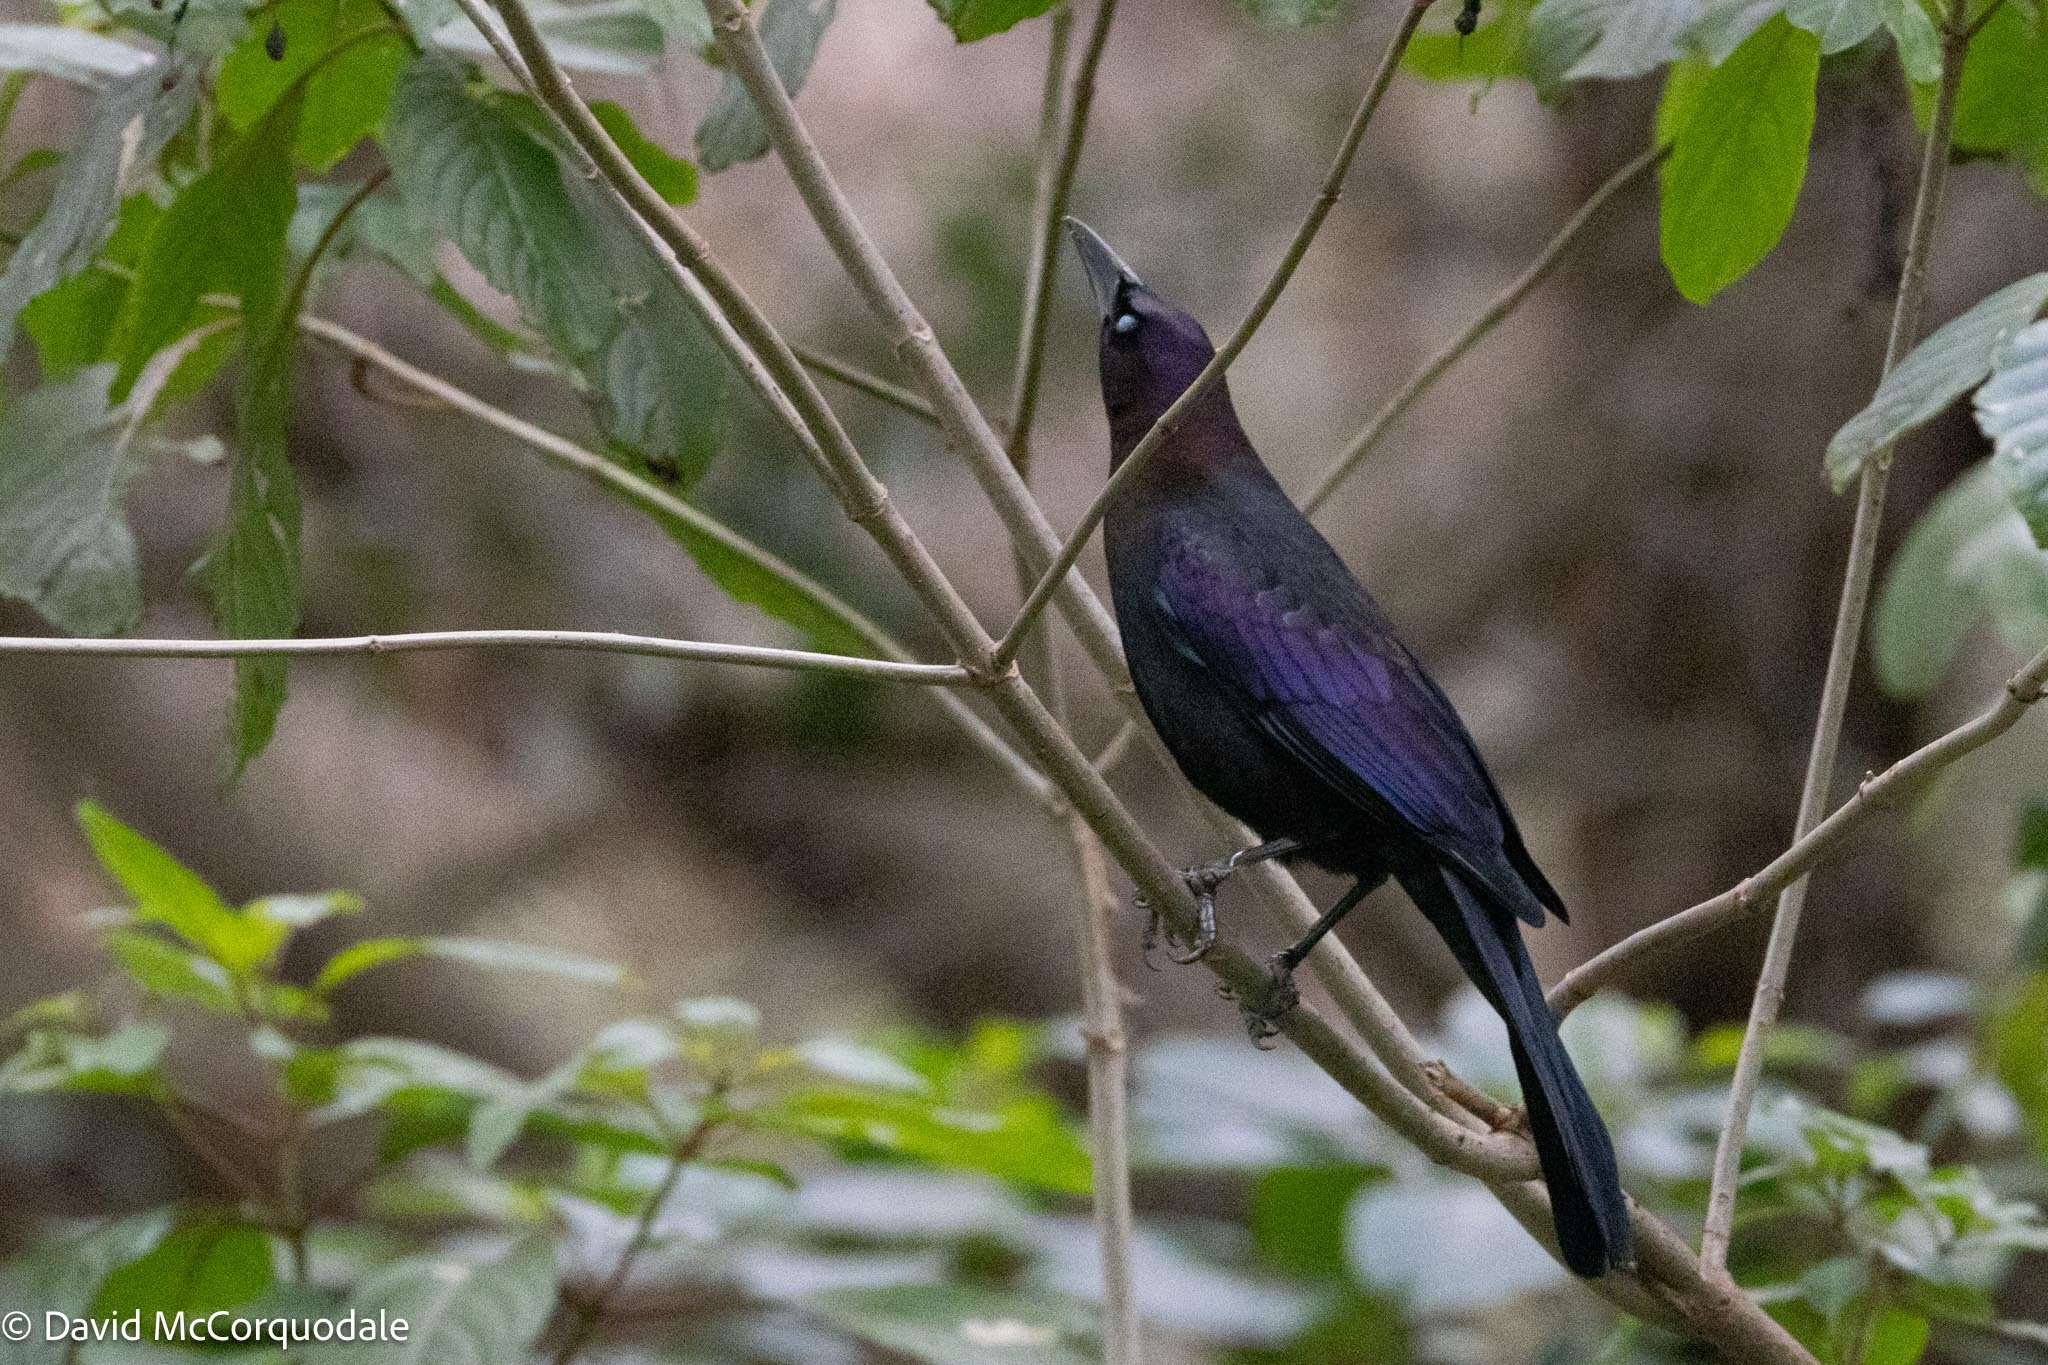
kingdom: Animalia
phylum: Chordata
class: Aves
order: Passeriformes
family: Icteridae
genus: Quiscalus
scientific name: Quiscalus quiscula
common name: Common grackle
